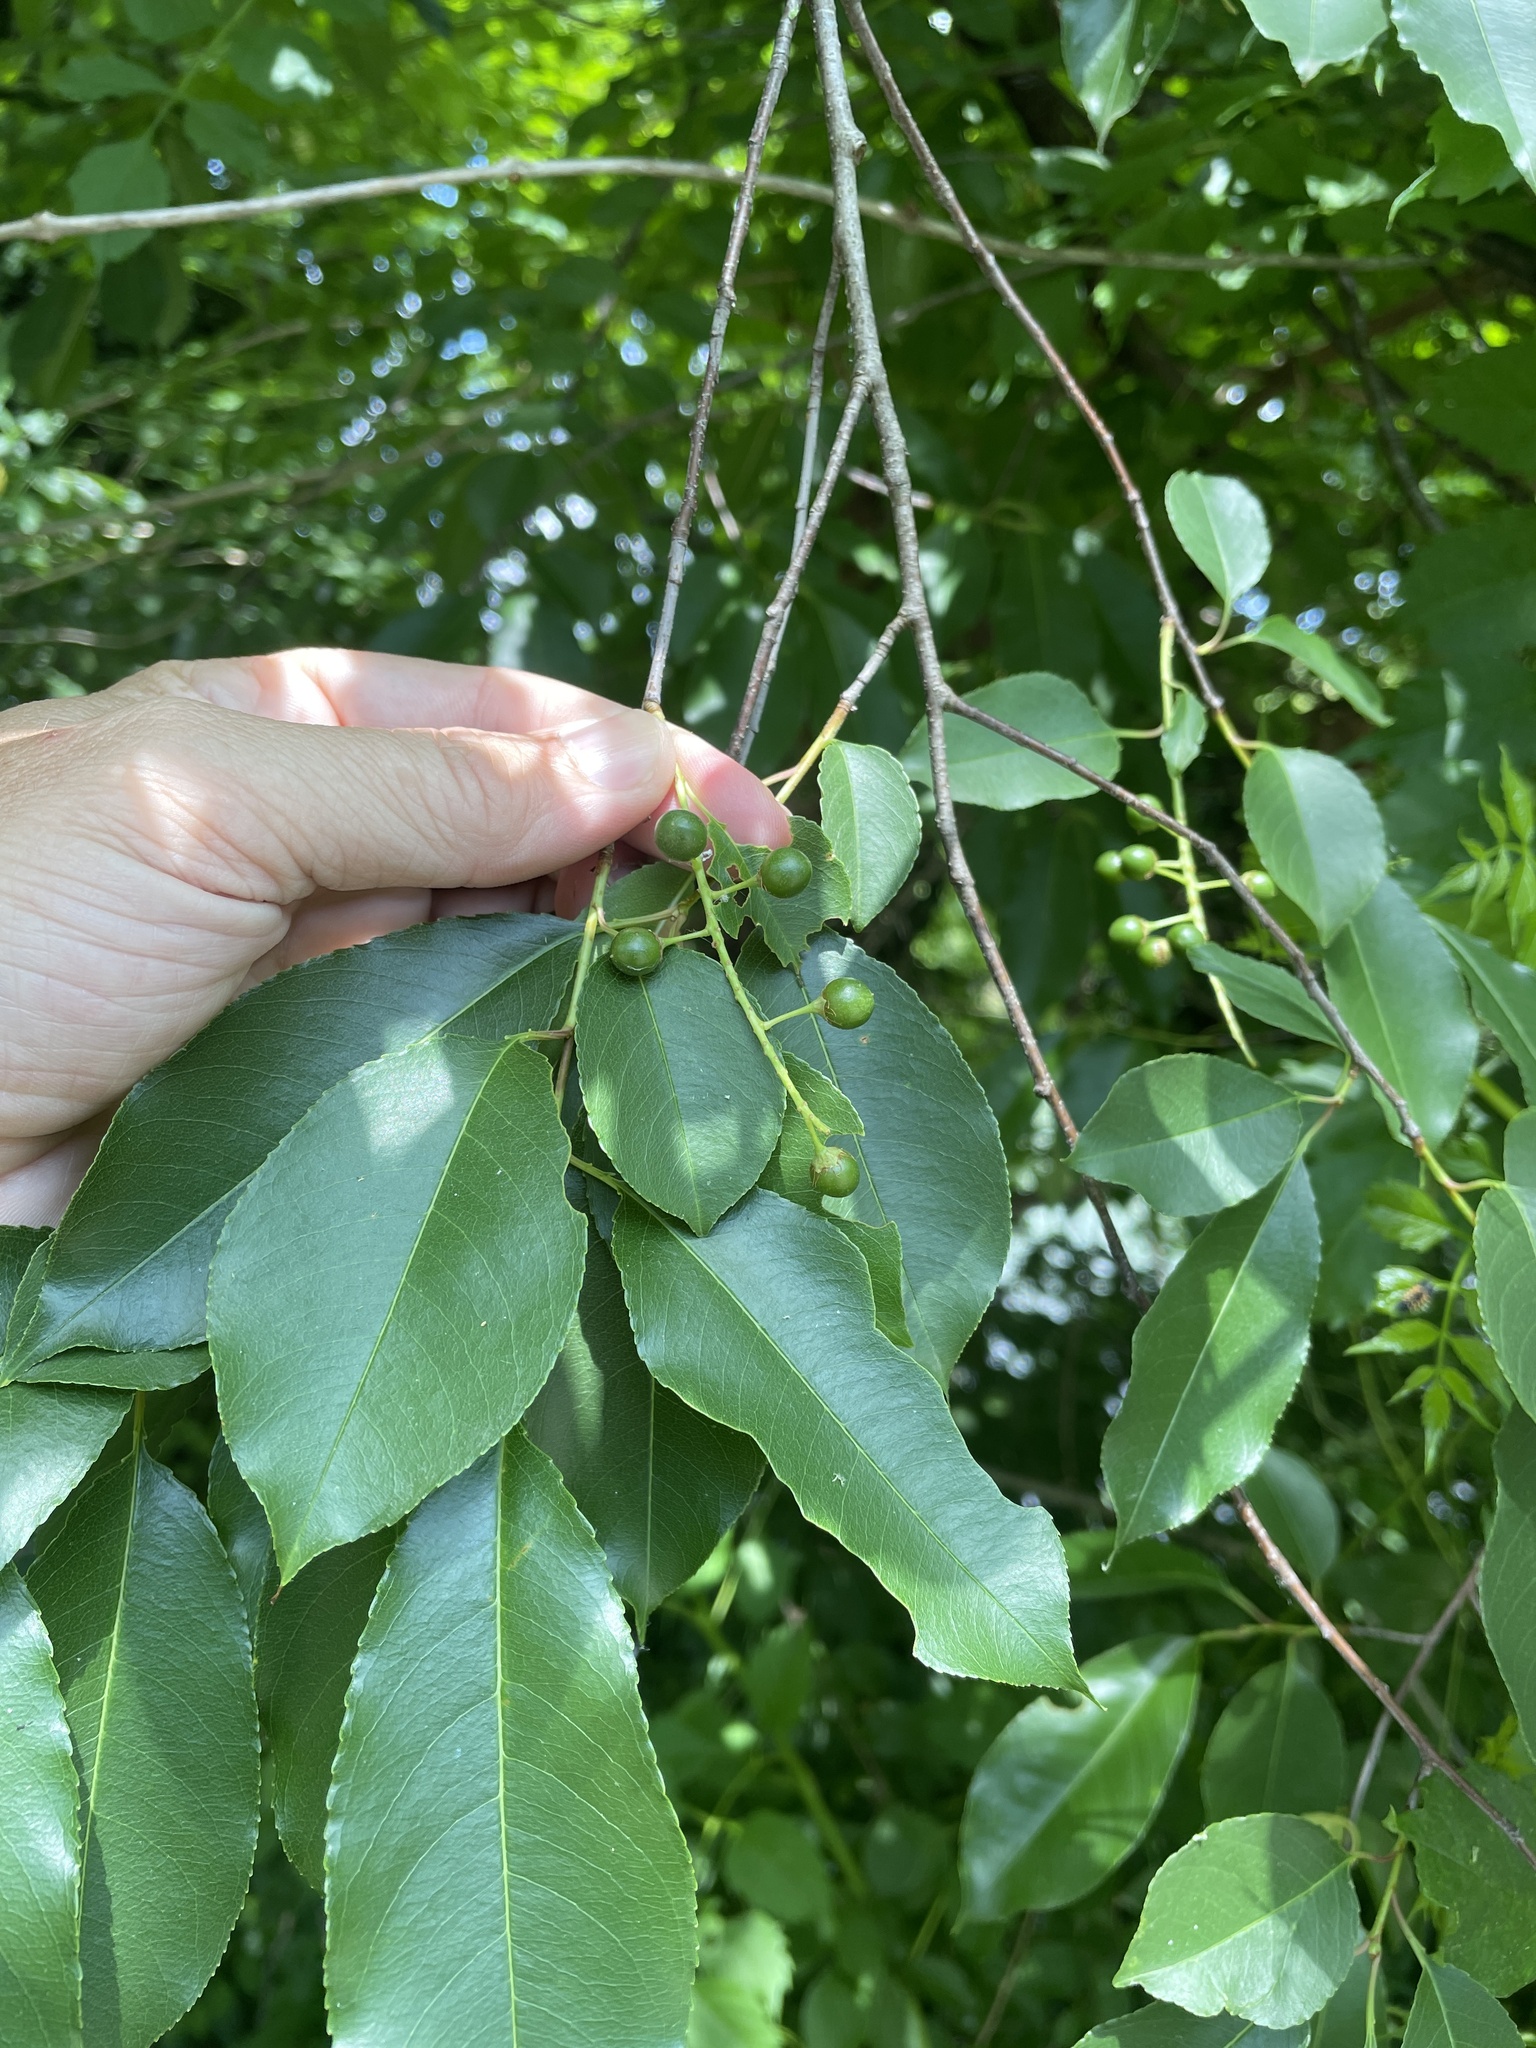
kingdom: Plantae
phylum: Tracheophyta
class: Magnoliopsida
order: Rosales
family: Rosaceae
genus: Prunus
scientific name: Prunus serotina
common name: Black cherry
